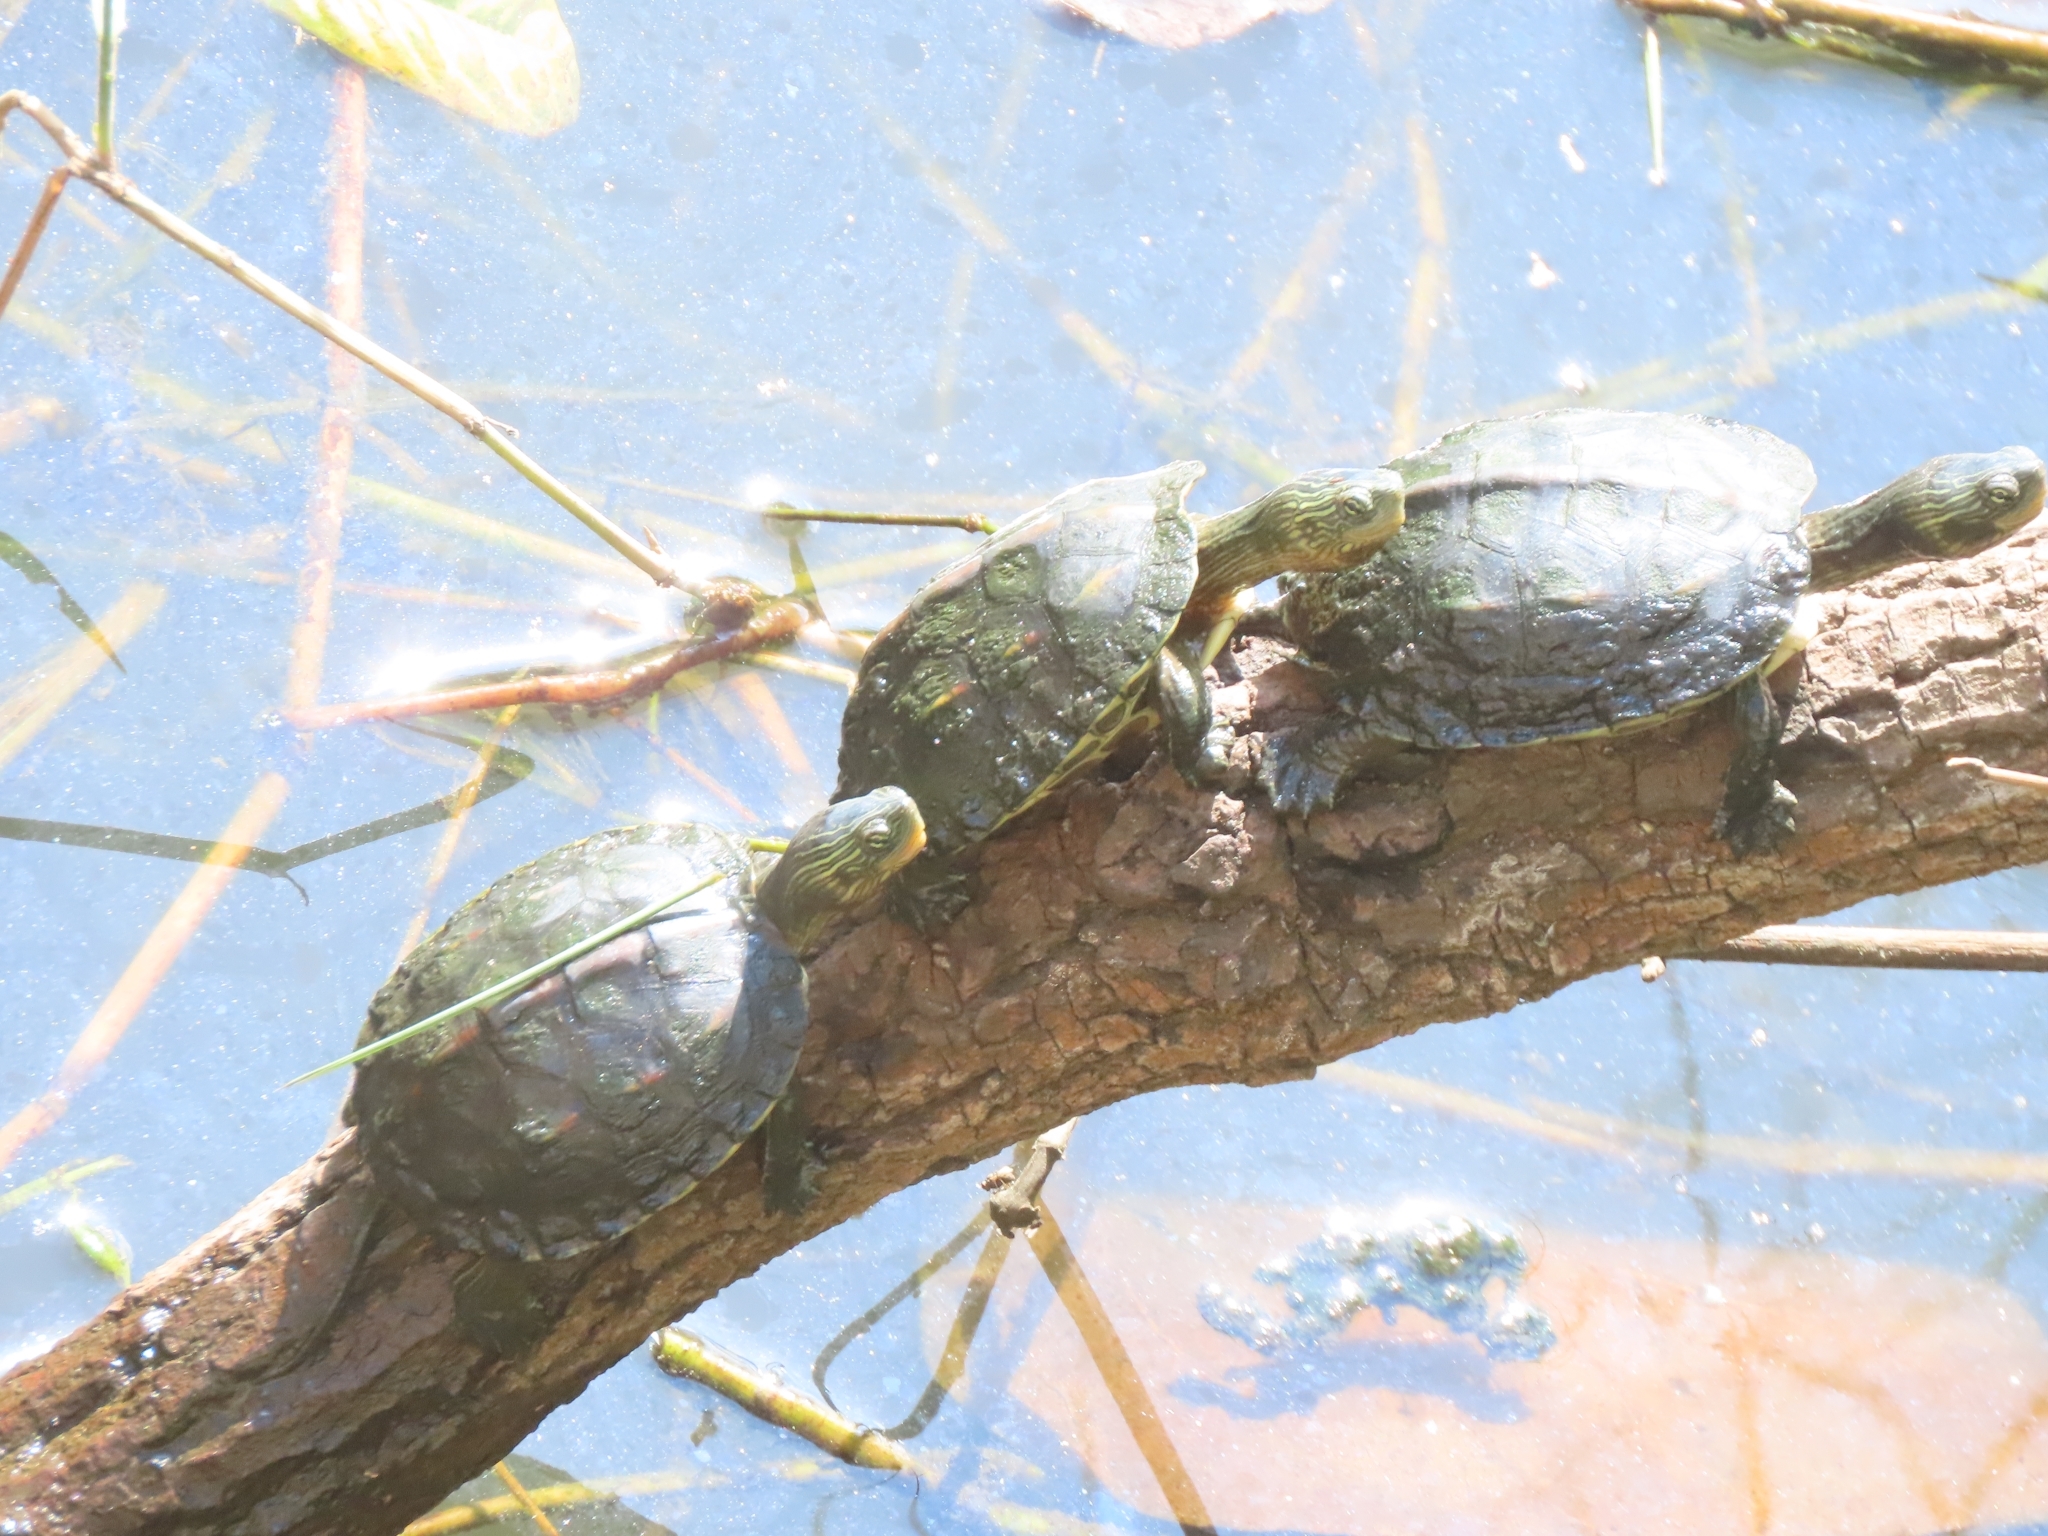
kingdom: Animalia
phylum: Chordata
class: Testudines
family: Geoemydidae
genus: Mauremys
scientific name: Mauremys sinensis
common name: Chinese stripe-necked turtle
